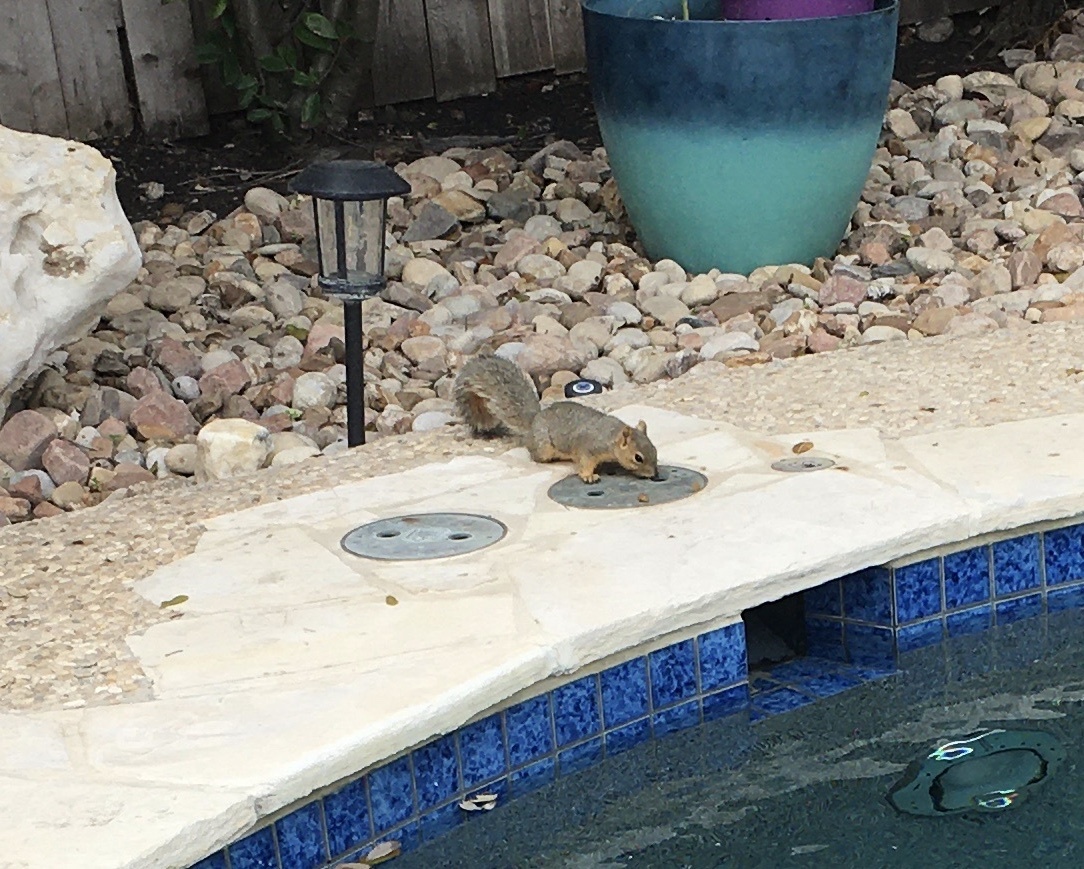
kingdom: Animalia
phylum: Chordata
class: Mammalia
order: Rodentia
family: Sciuridae
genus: Sciurus
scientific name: Sciurus niger
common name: Fox squirrel
